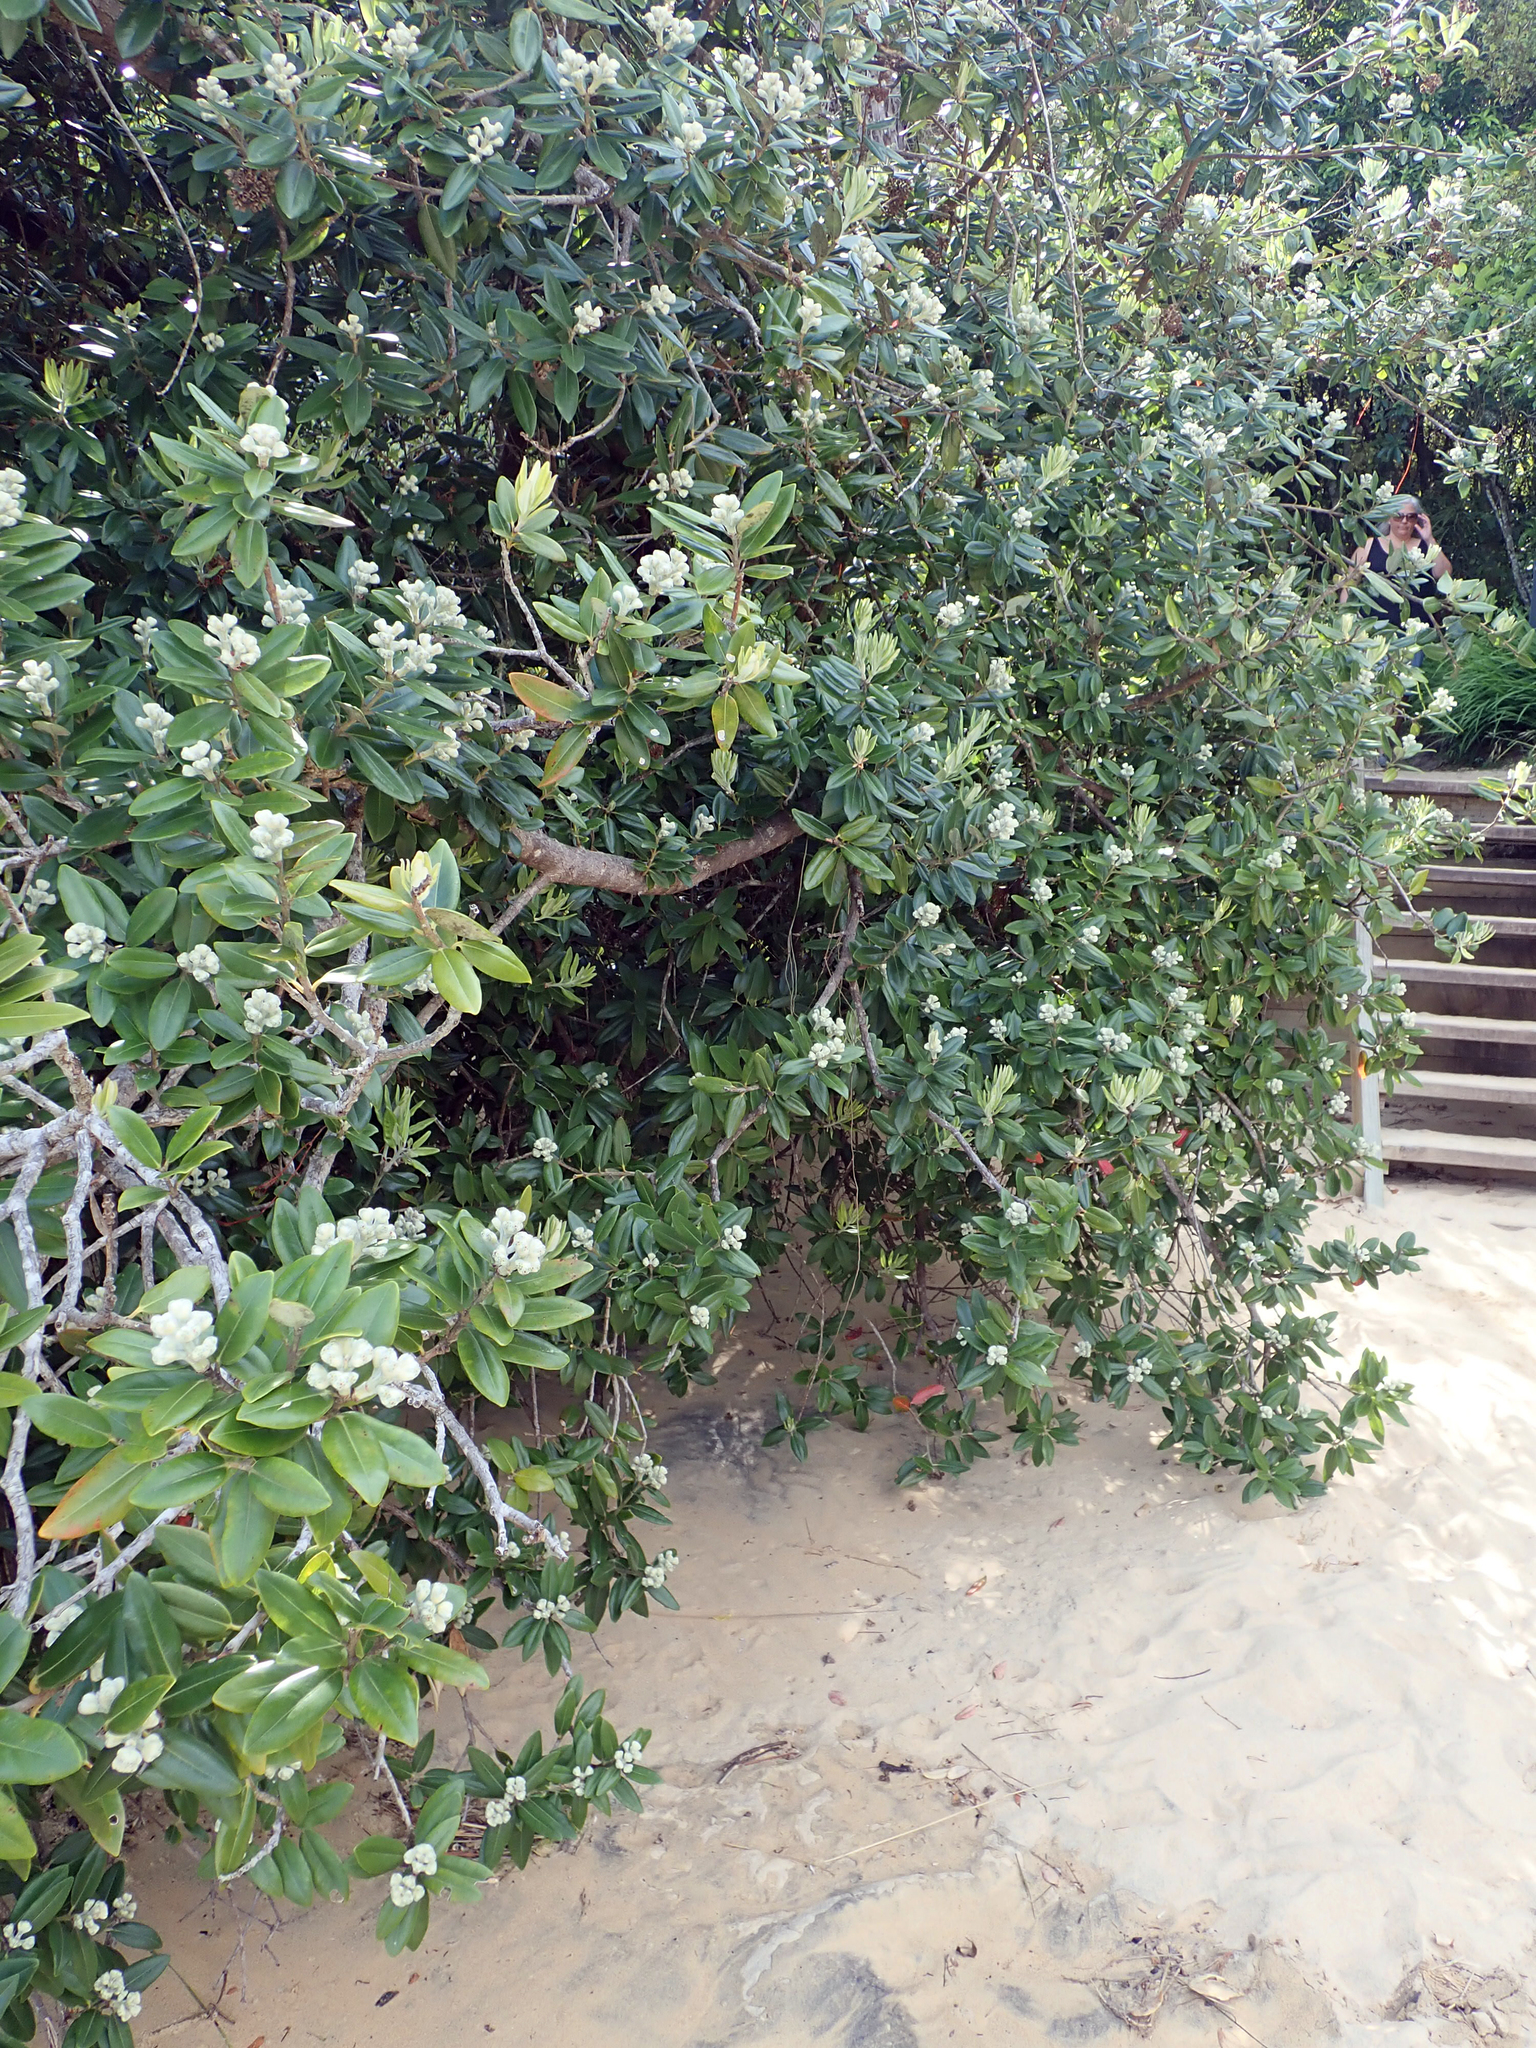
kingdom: Plantae
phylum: Tracheophyta
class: Magnoliopsida
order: Myrtales
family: Myrtaceae
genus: Metrosideros
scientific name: Metrosideros excelsa
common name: New zealand christmastree
